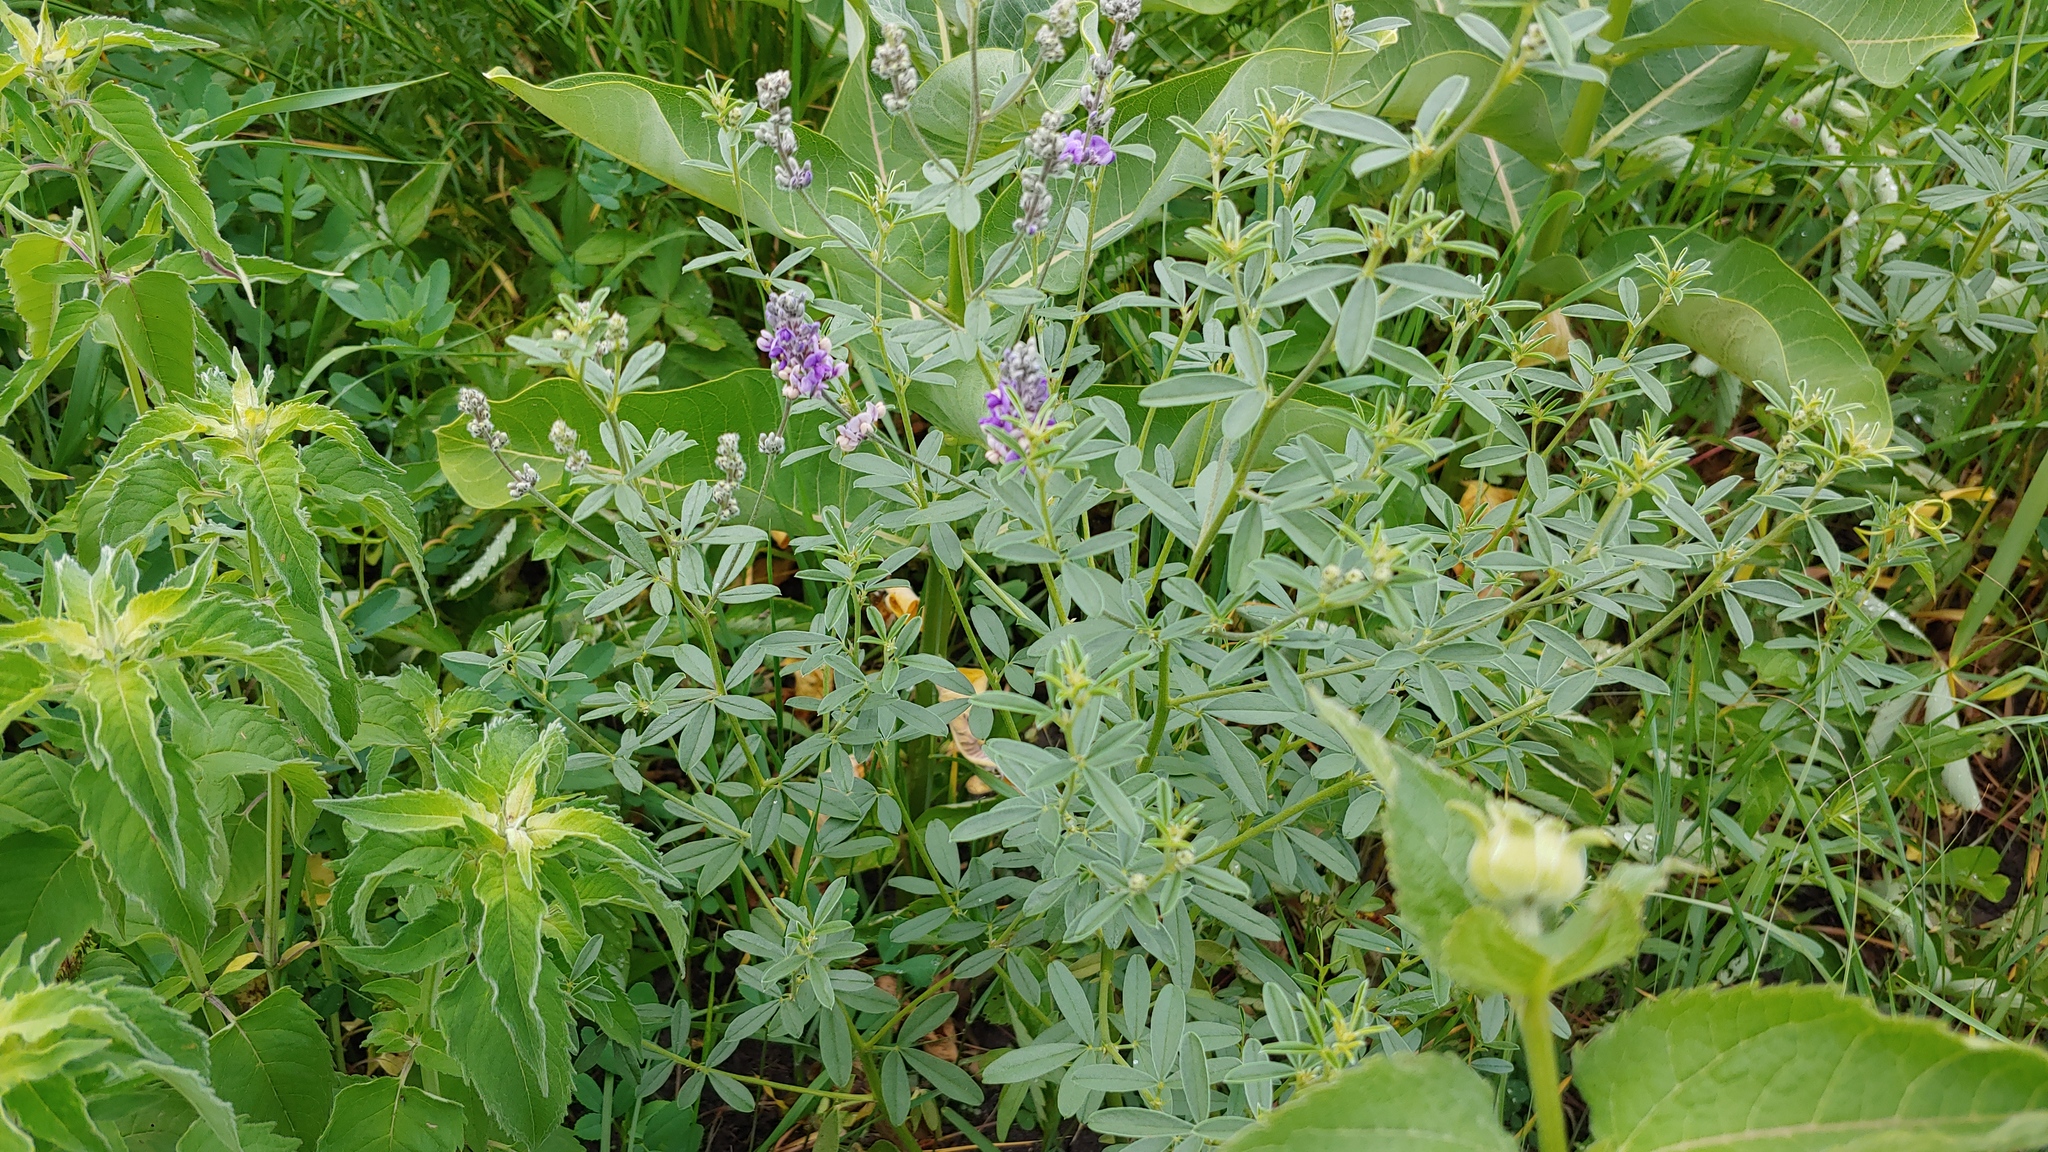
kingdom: Plantae
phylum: Tracheophyta
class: Magnoliopsida
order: Fabales
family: Fabaceae
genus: Pediomelum
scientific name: Pediomelum tenuiflorum
